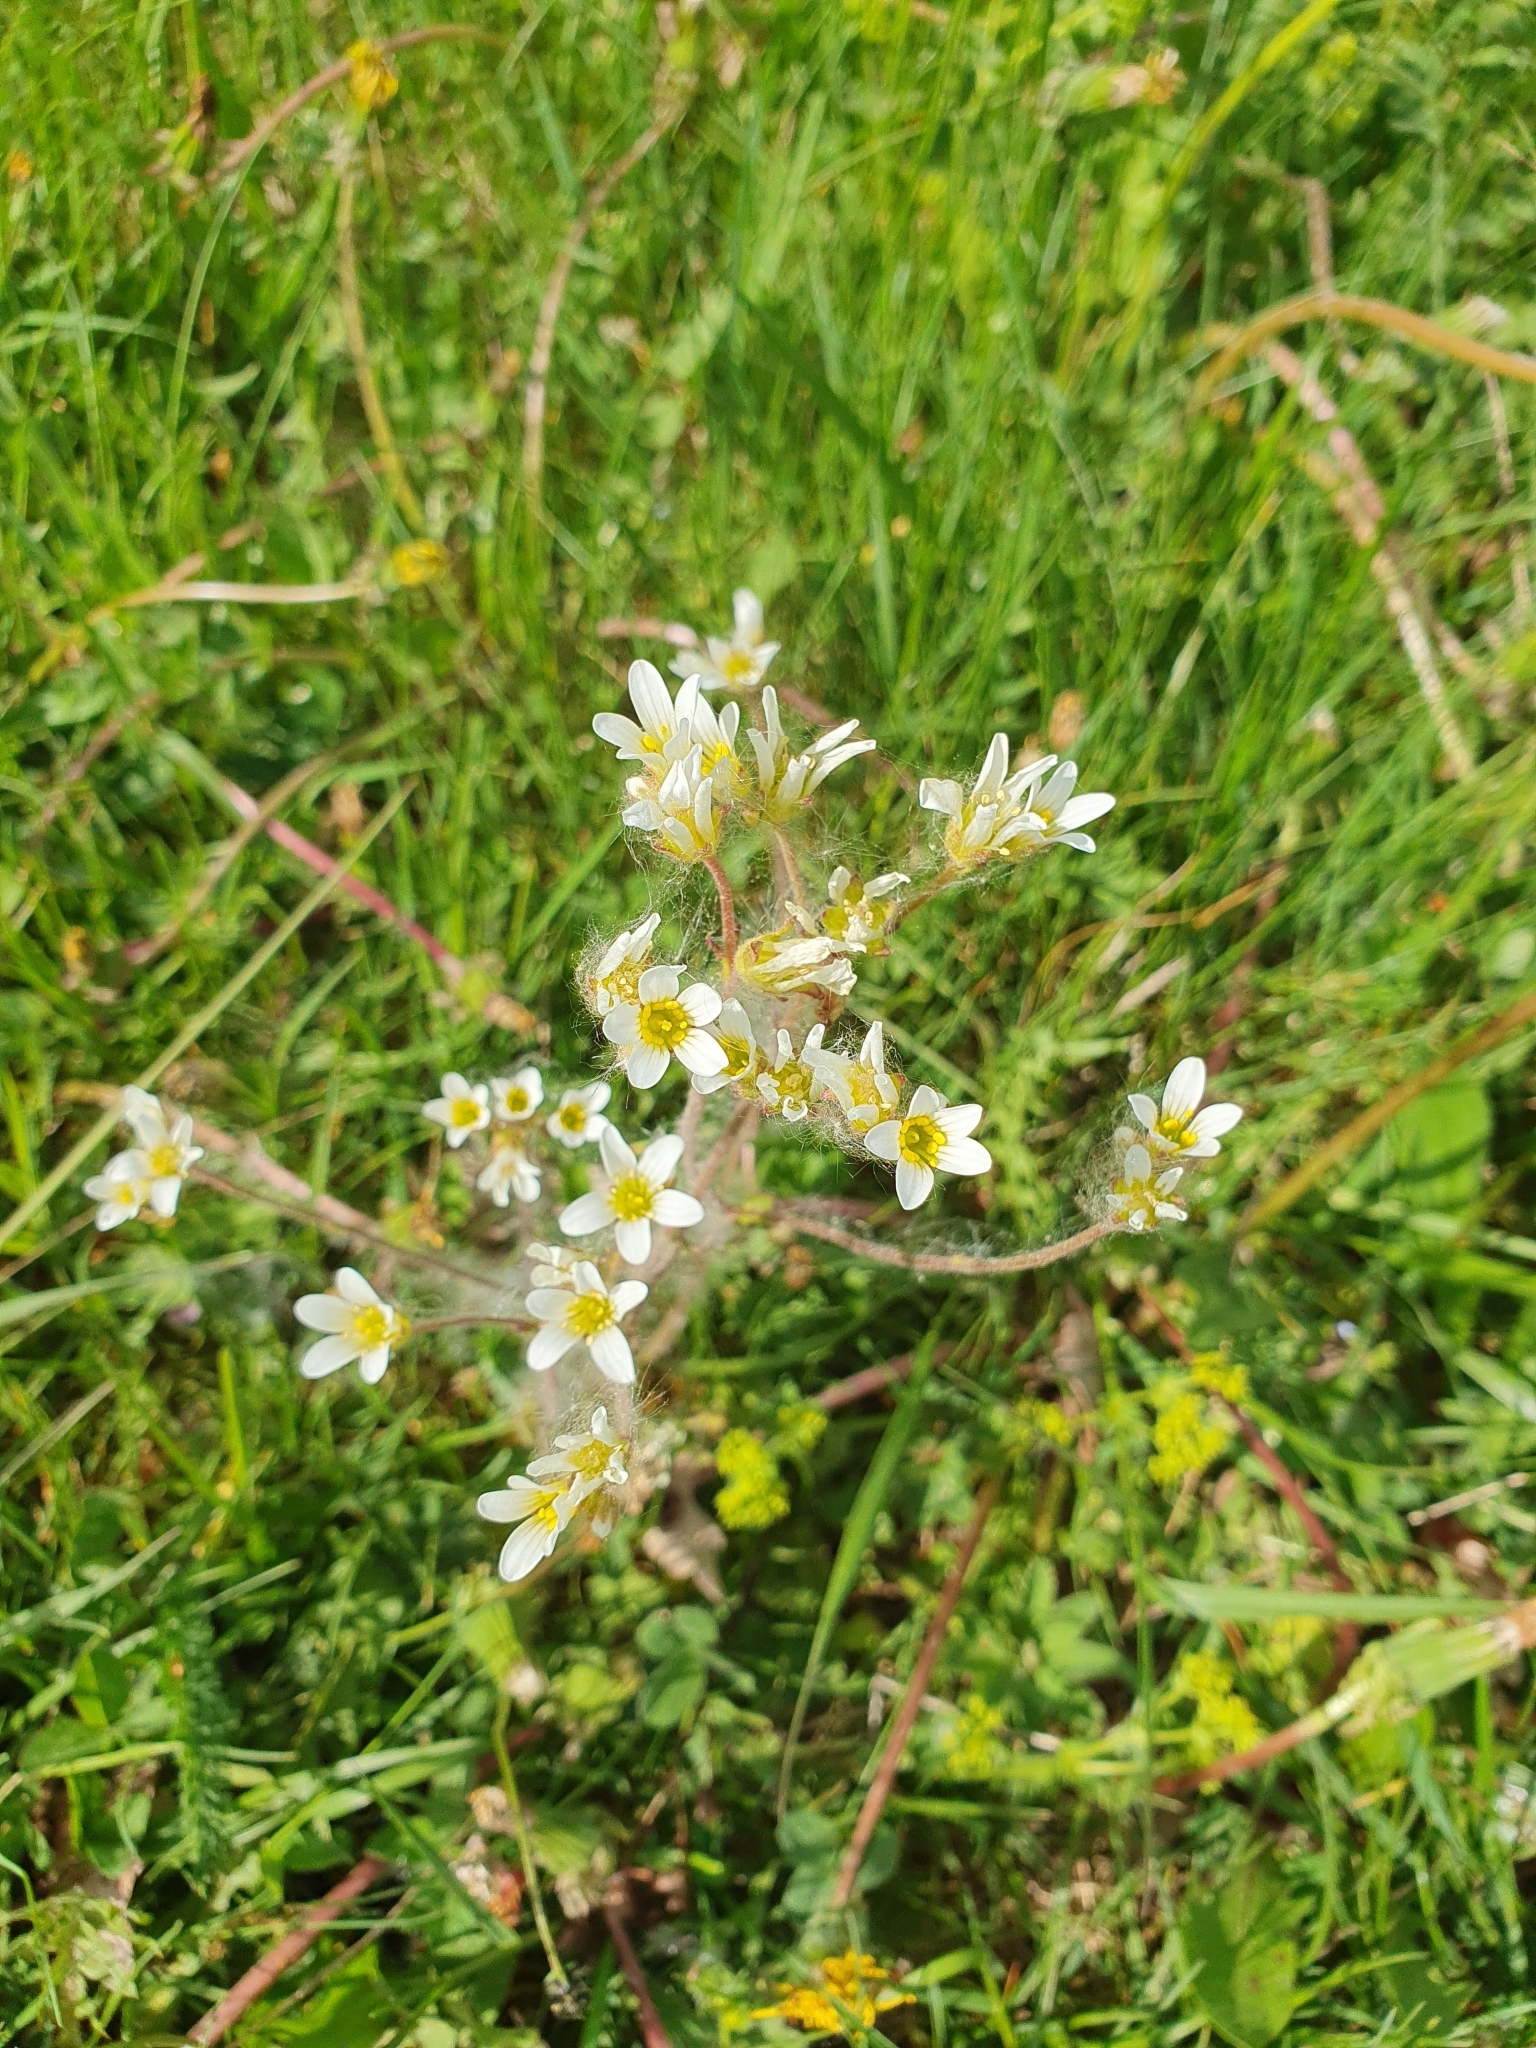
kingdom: Plantae
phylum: Tracheophyta
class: Magnoliopsida
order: Saxifragales
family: Saxifragaceae
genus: Saxifraga
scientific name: Saxifraga granulata
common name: Meadow saxifrage
